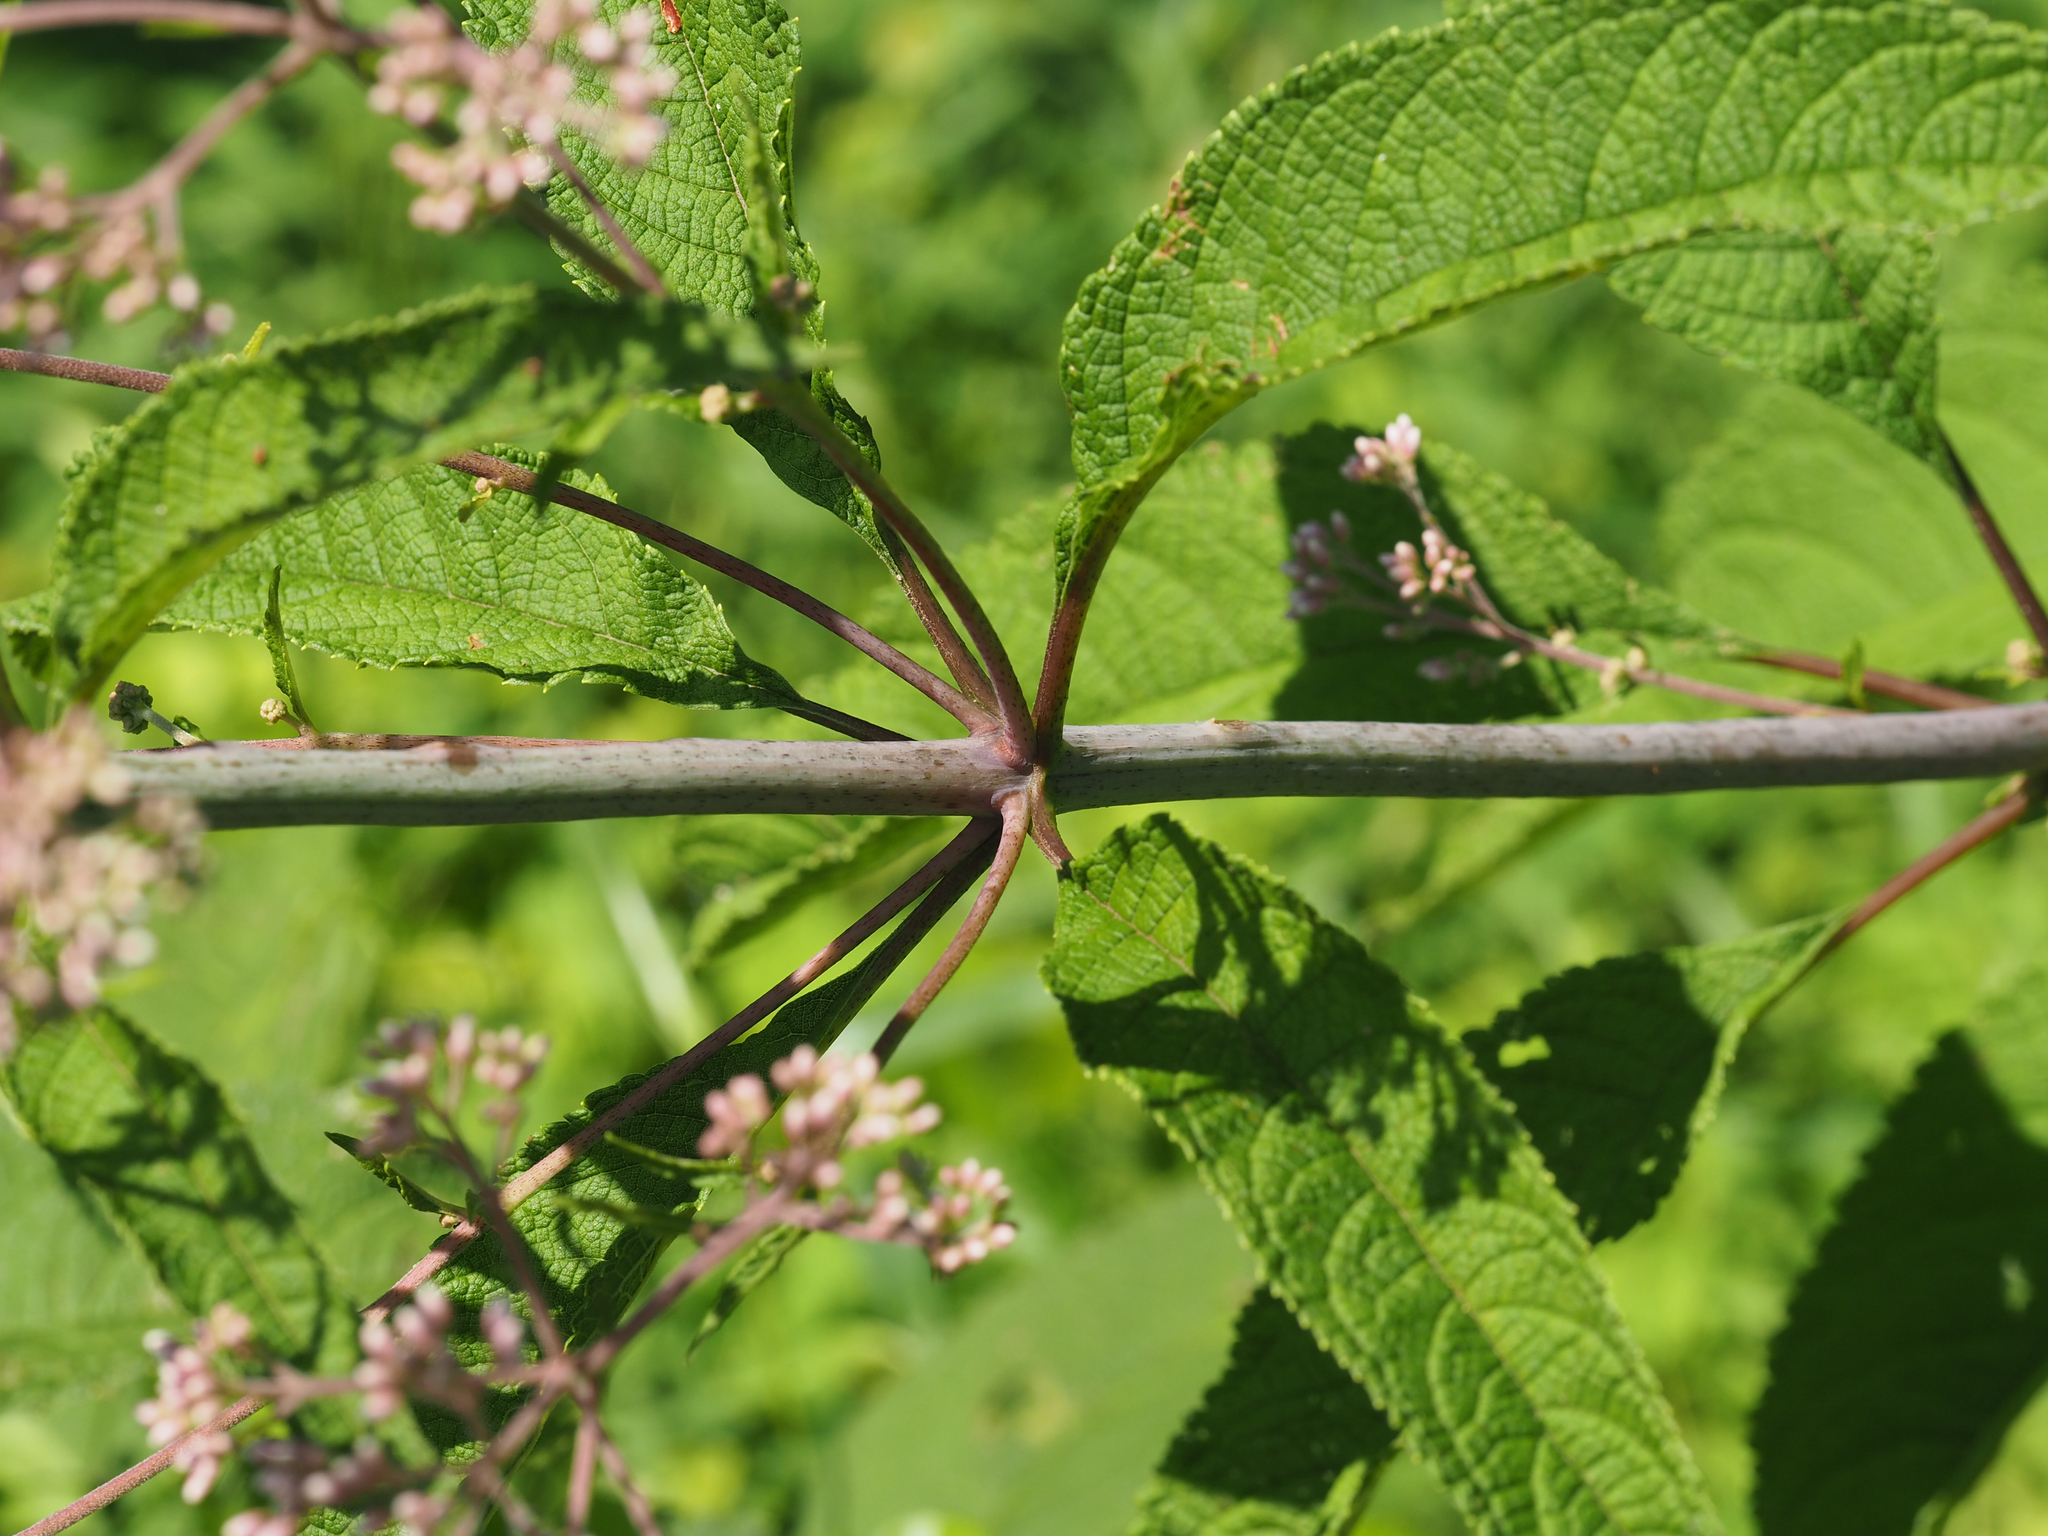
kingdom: Plantae
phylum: Tracheophyta
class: Magnoliopsida
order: Asterales
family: Asteraceae
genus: Eutrochium
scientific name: Eutrochium fistulosum
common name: Trumpetweed
